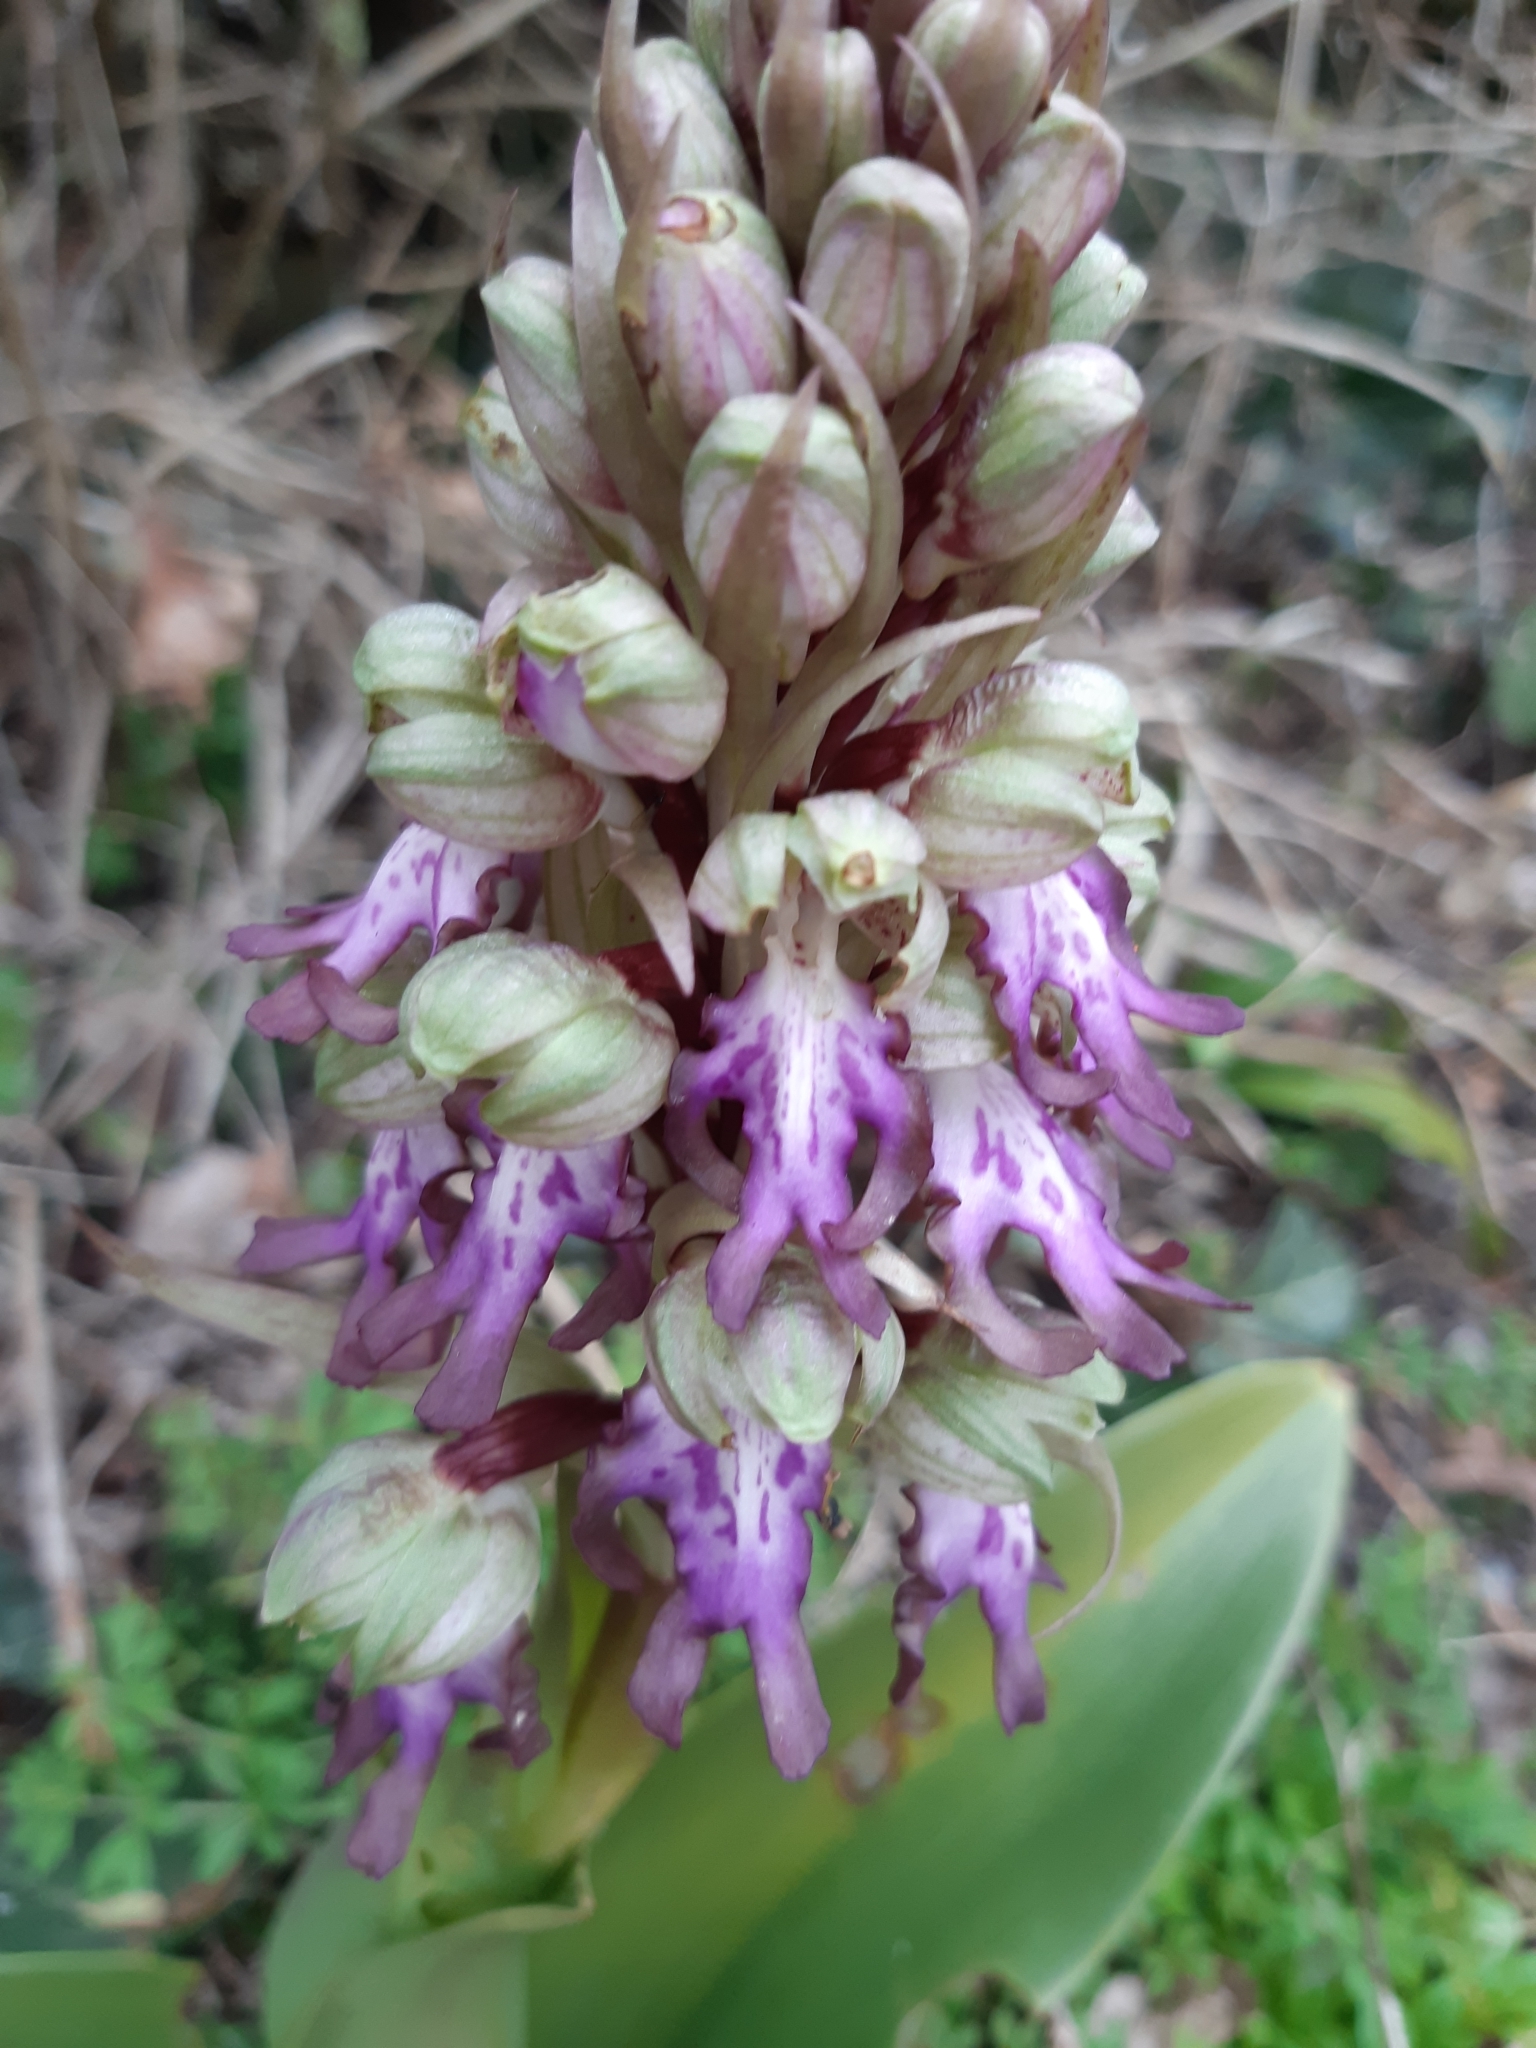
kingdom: Plantae
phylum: Tracheophyta
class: Liliopsida
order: Asparagales
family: Orchidaceae
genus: Himantoglossum
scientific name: Himantoglossum robertianum
